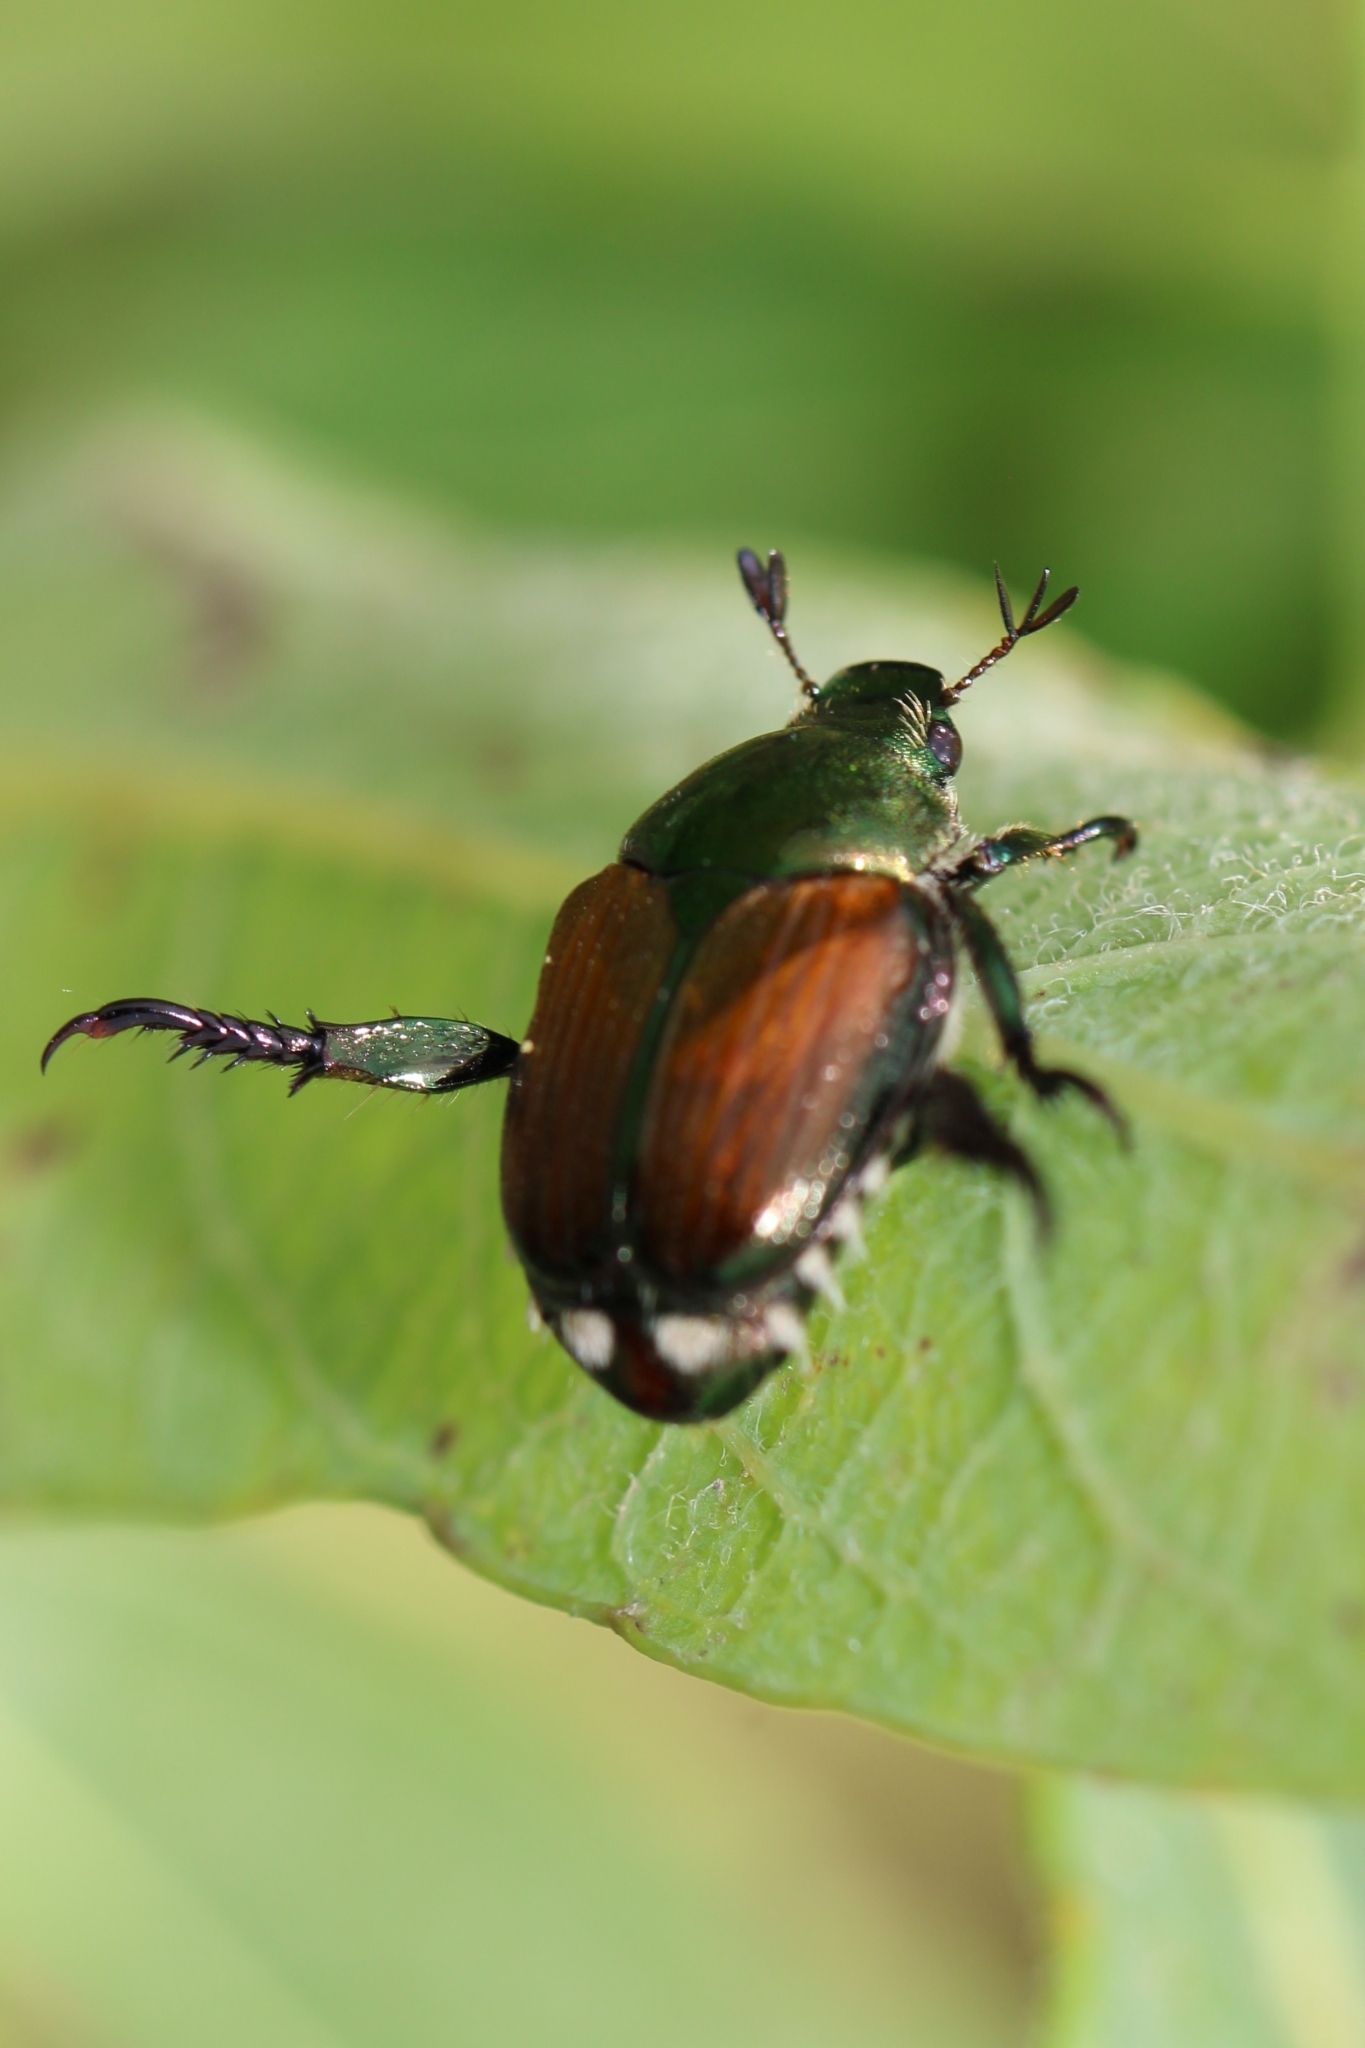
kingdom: Animalia
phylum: Arthropoda
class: Insecta
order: Coleoptera
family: Scarabaeidae
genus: Popillia
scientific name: Popillia japonica
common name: Japanese beetle
